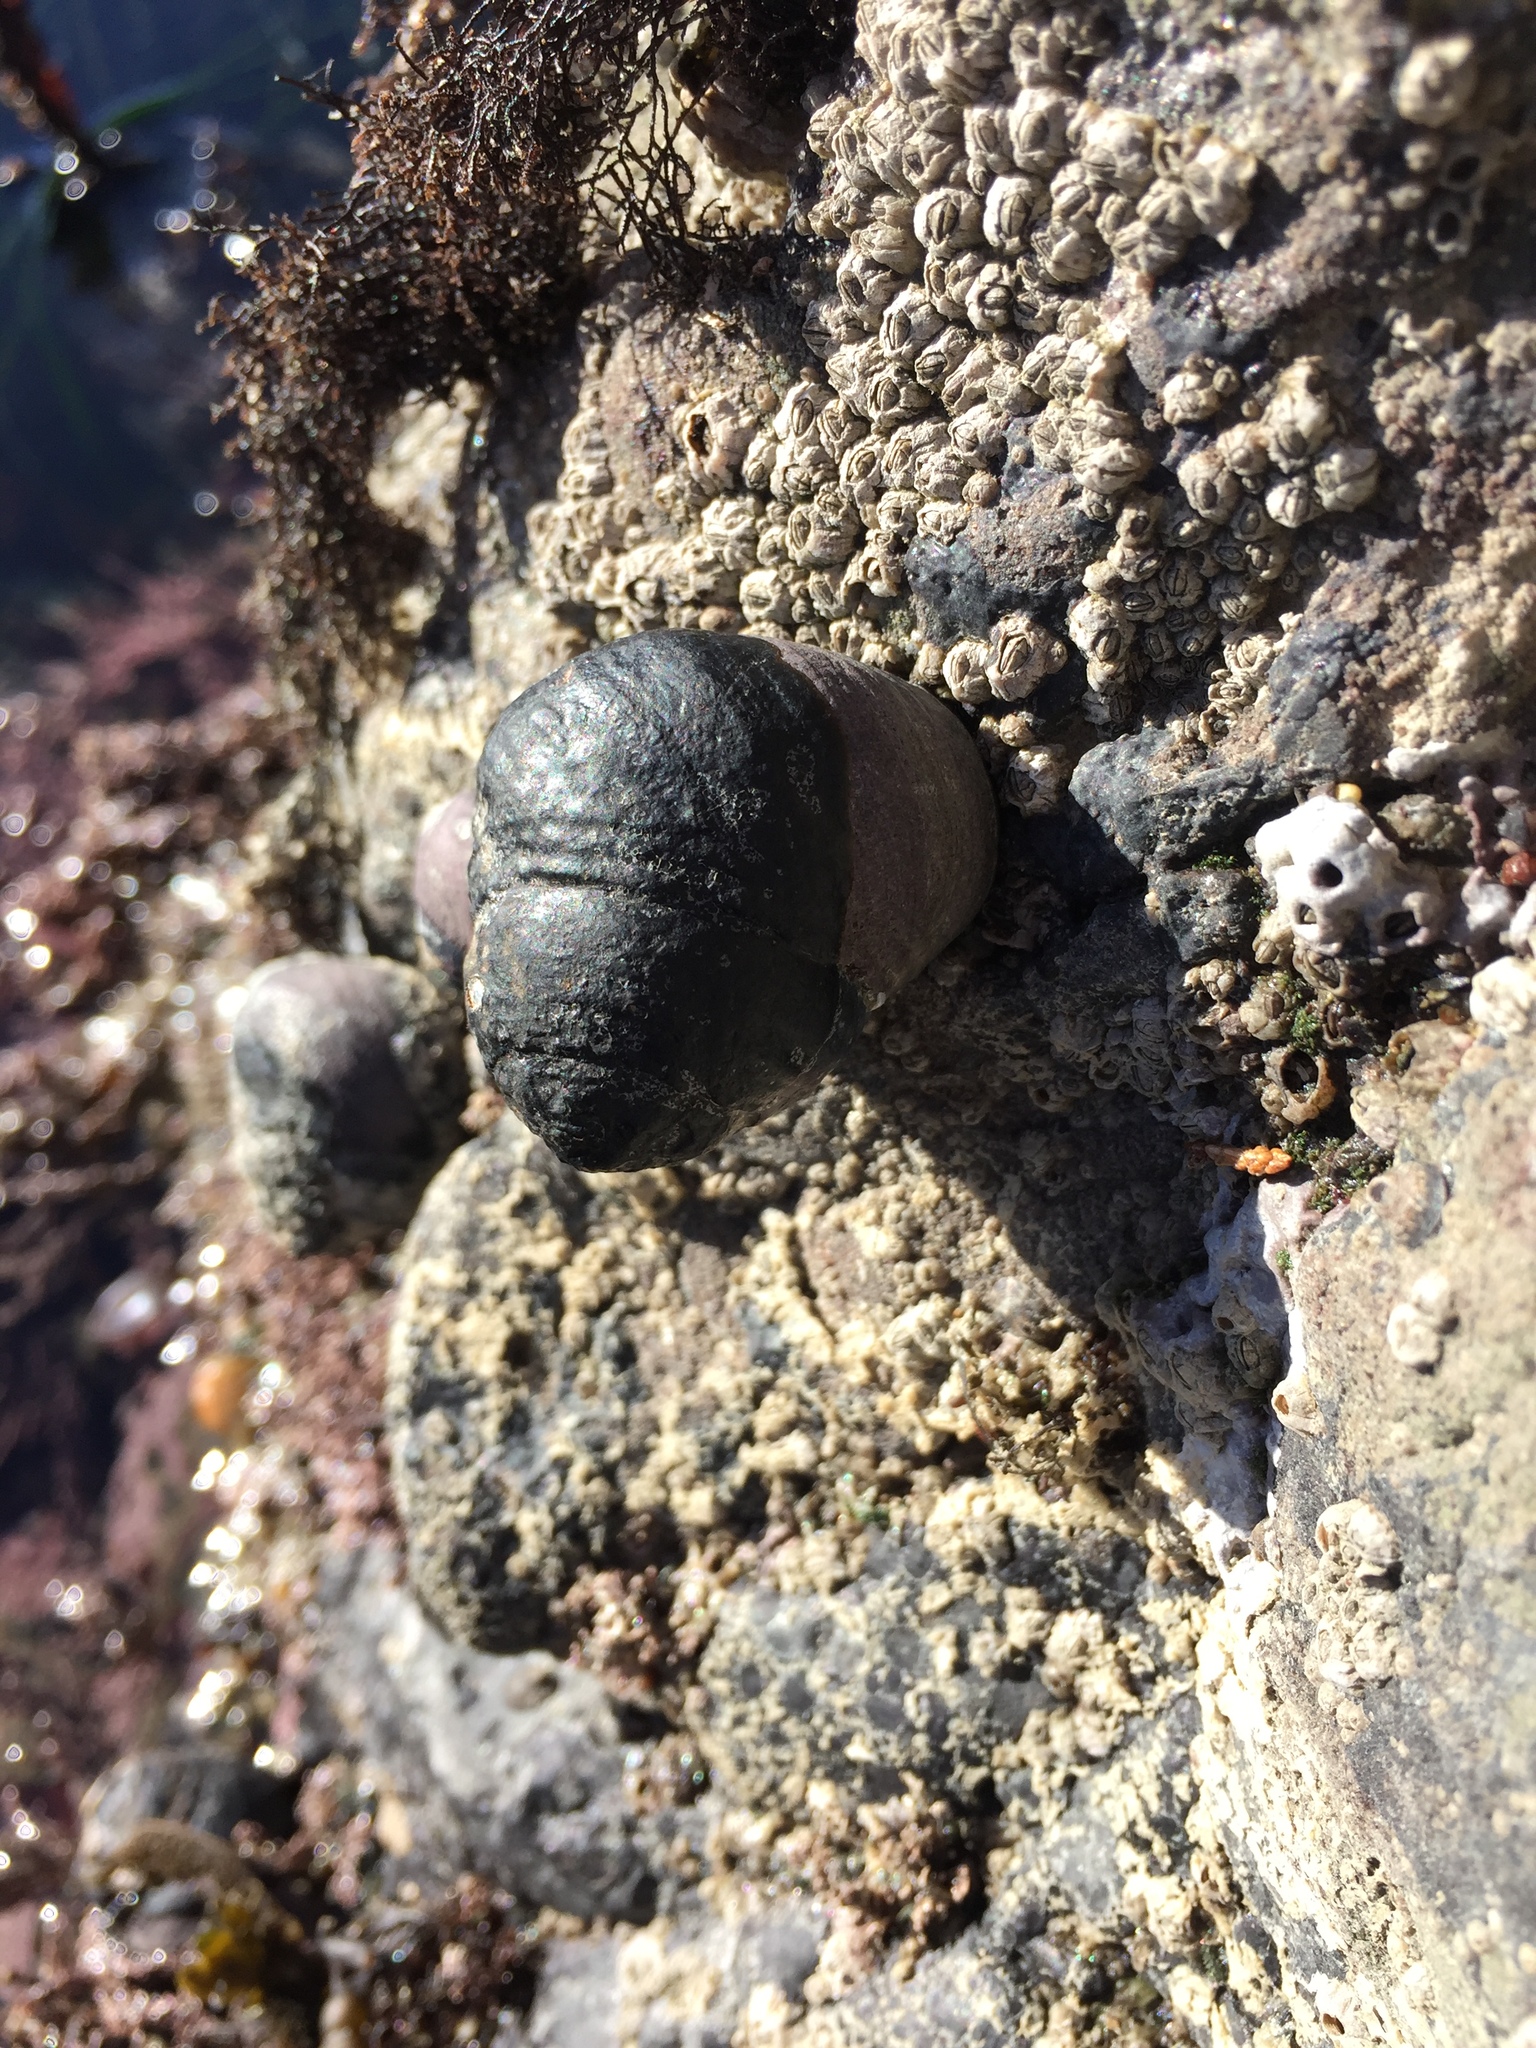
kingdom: Animalia
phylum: Mollusca
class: Gastropoda
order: Trochida
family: Tegulidae
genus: Tegula
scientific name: Tegula funebralis
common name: Black tegula
